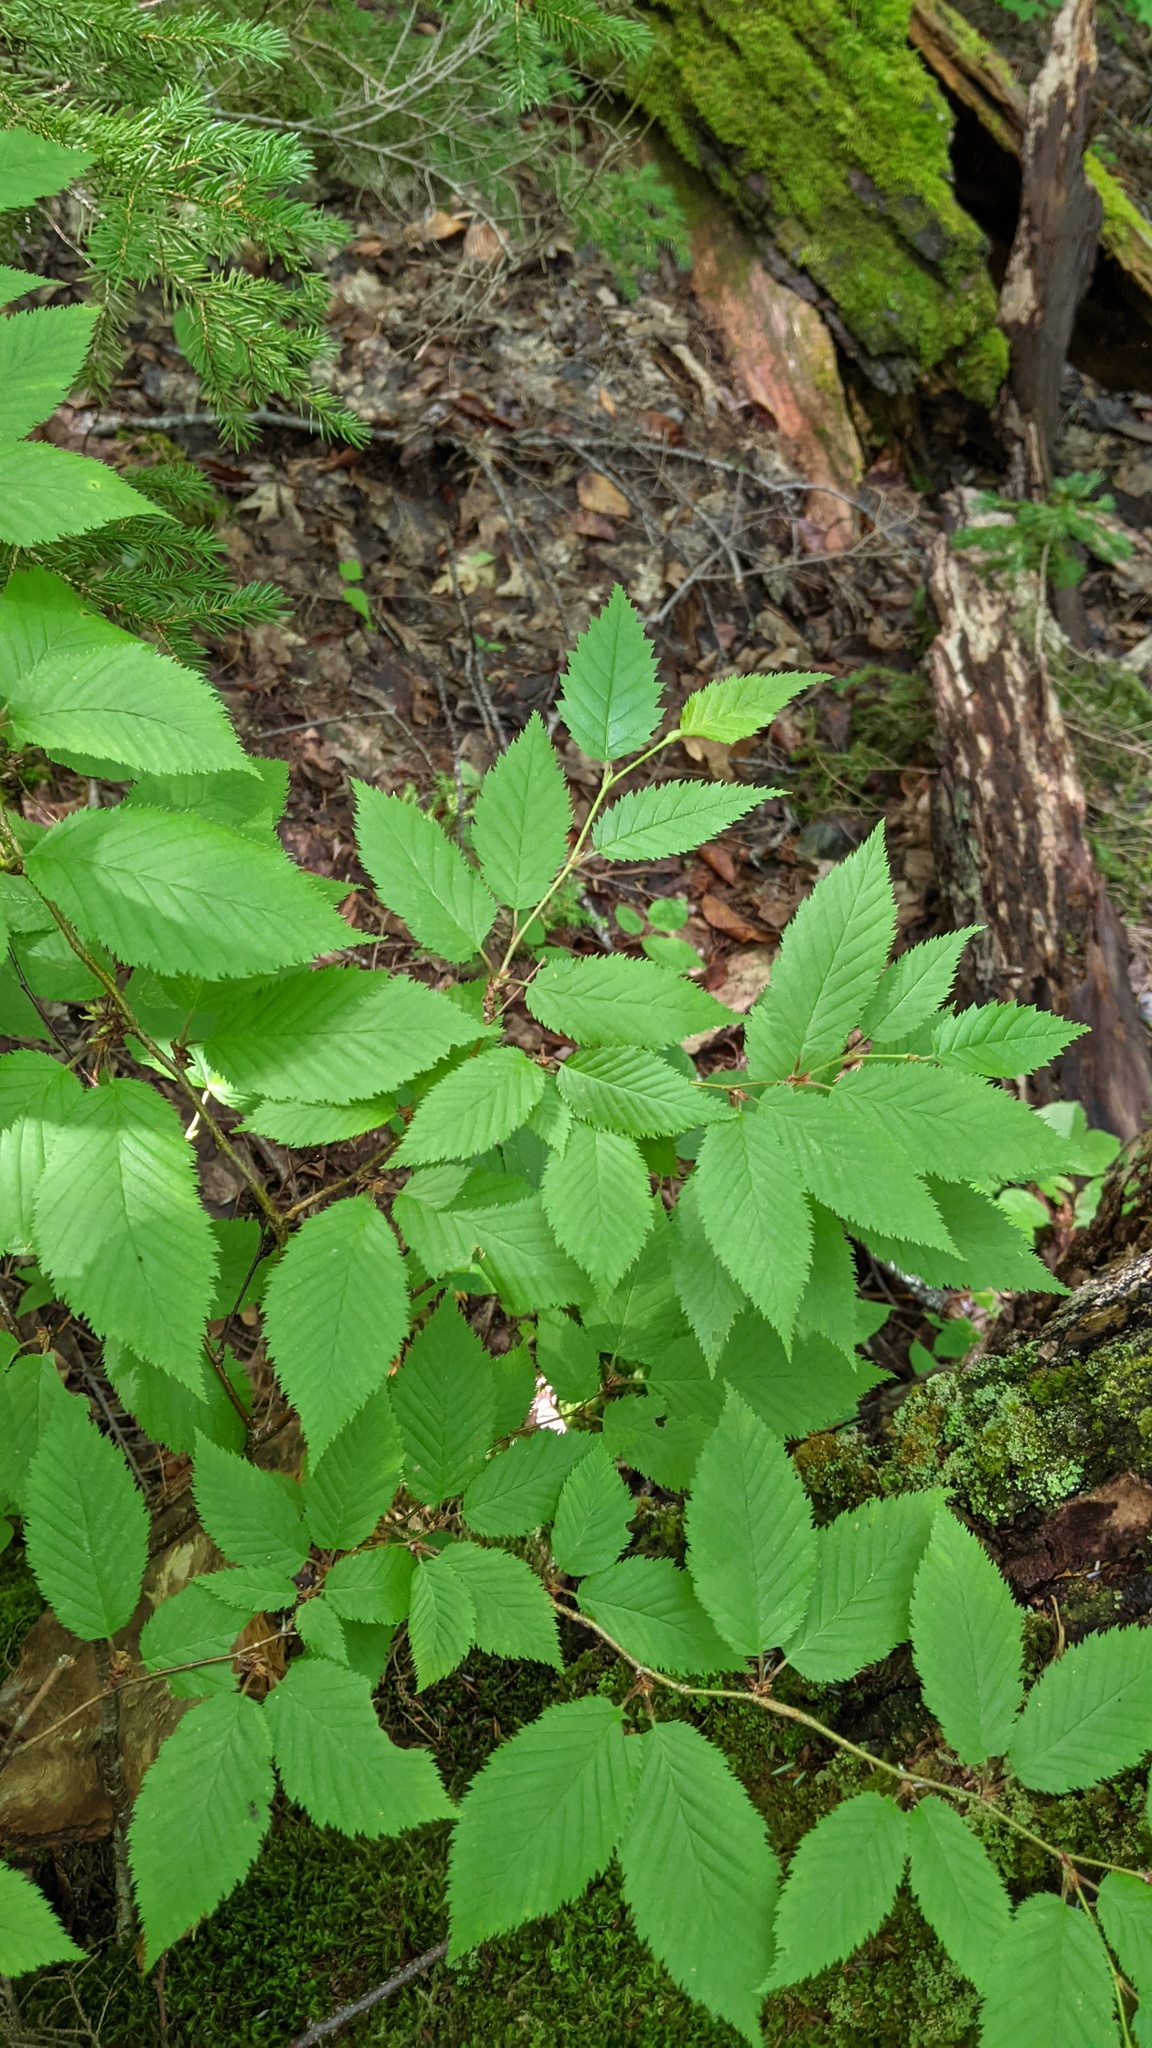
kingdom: Plantae
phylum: Tracheophyta
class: Magnoliopsida
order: Fagales
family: Betulaceae
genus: Betula
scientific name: Betula alleghaniensis
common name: Yellow birch
